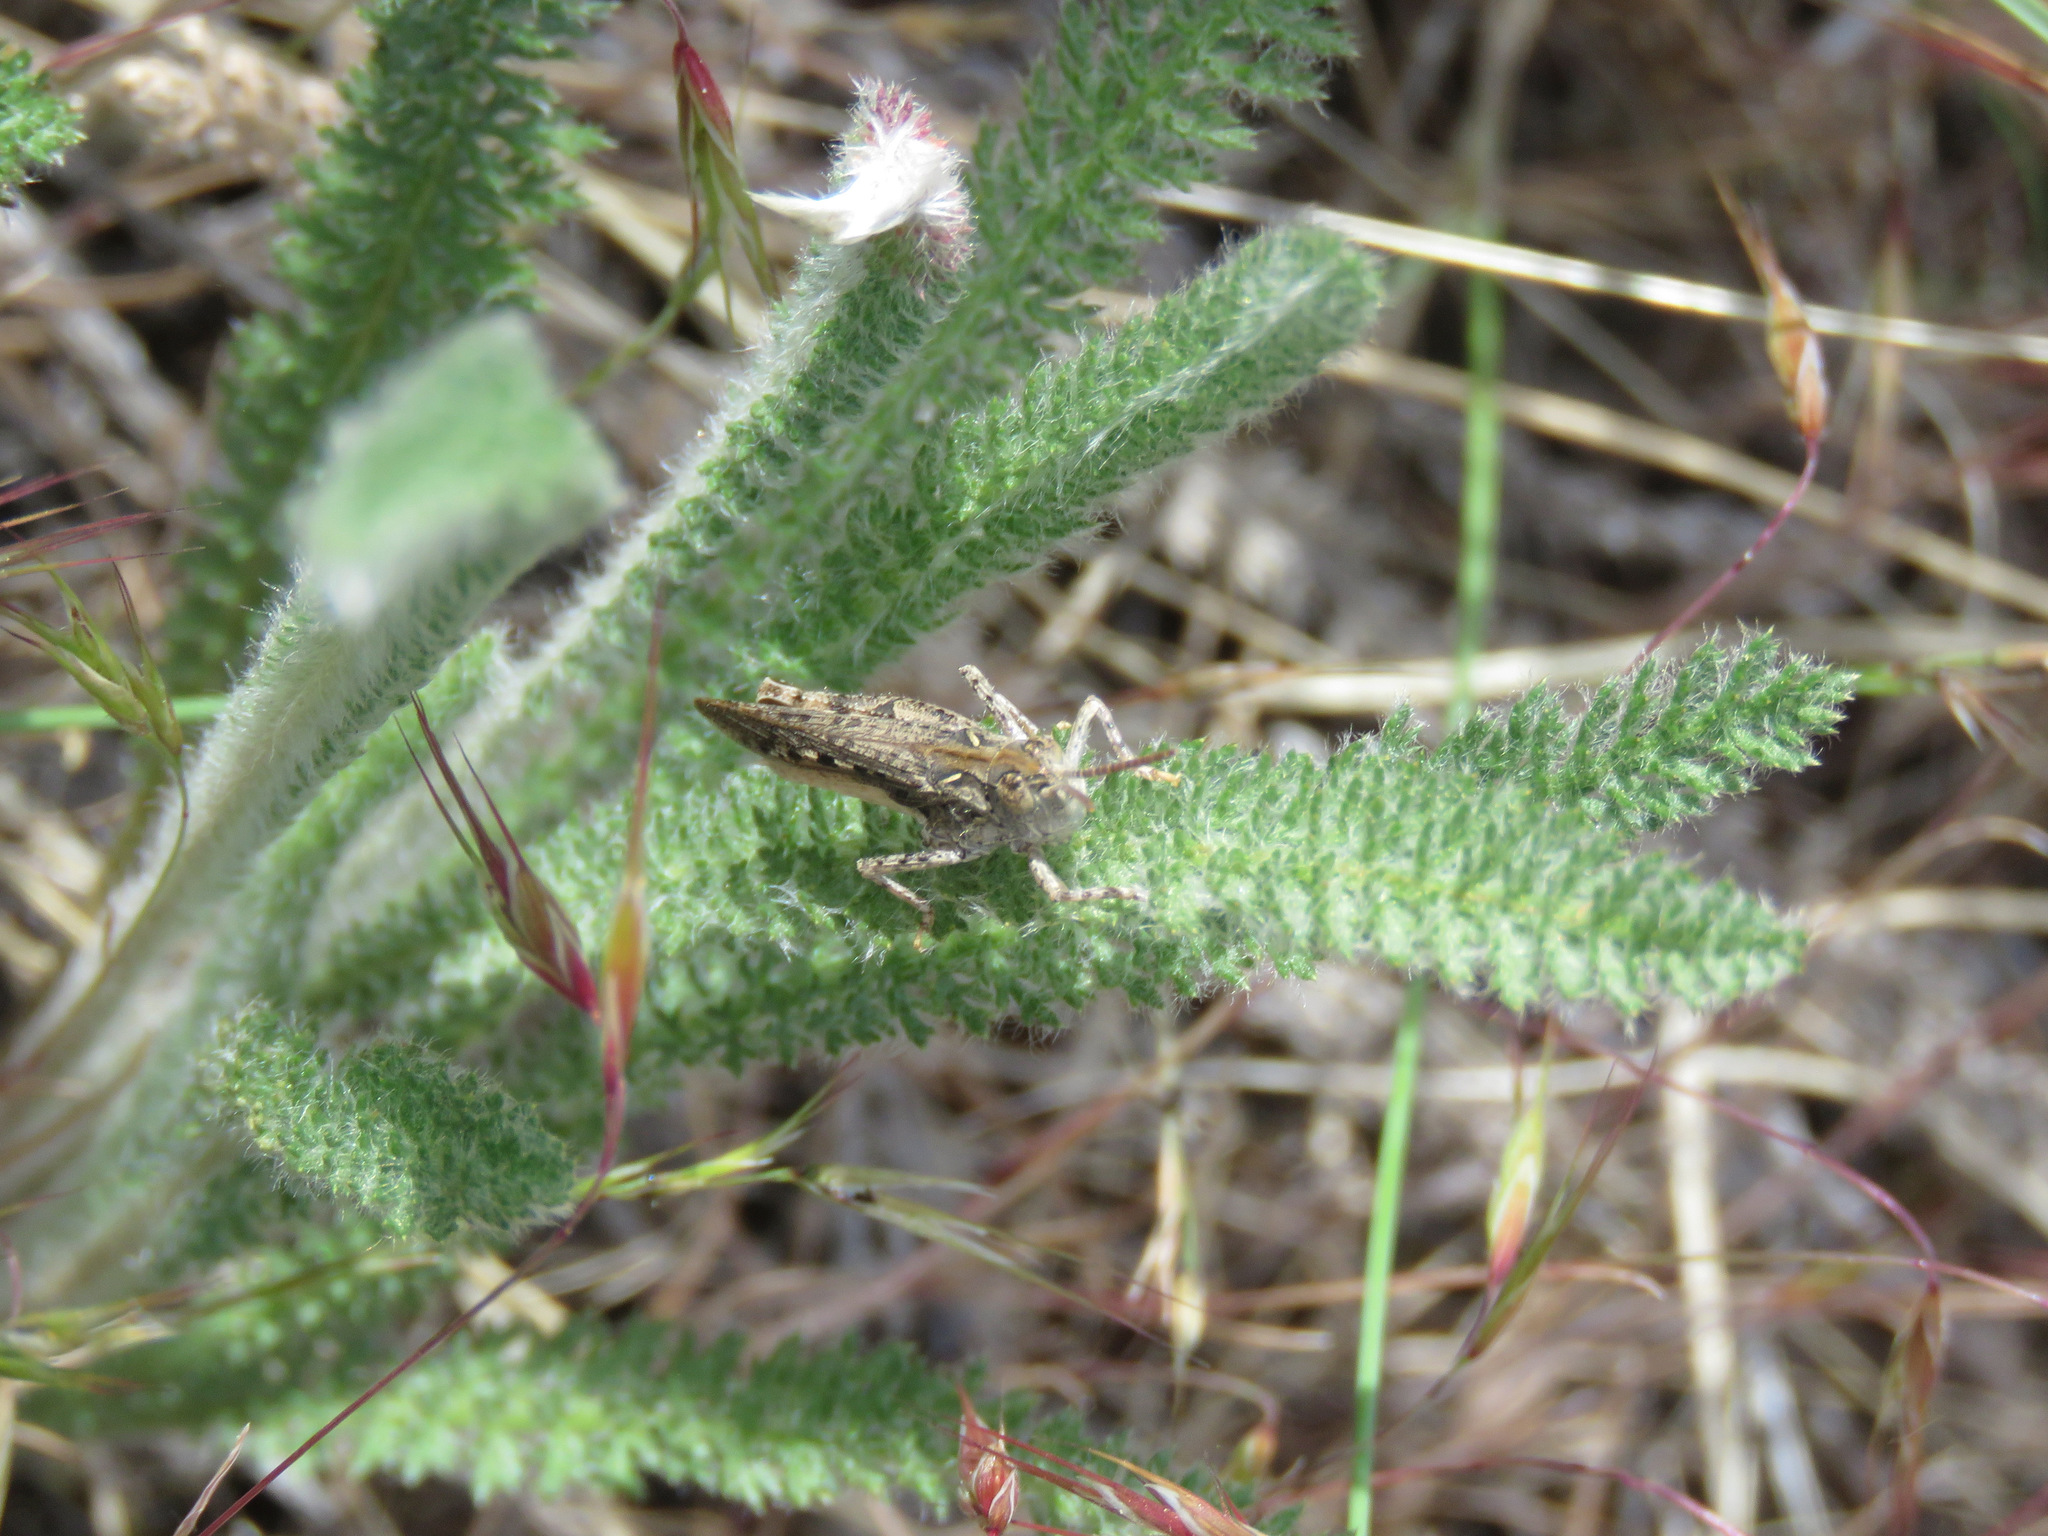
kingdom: Animalia
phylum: Arthropoda
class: Insecta
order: Orthoptera
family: Acrididae
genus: Psoloessa
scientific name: Psoloessa delicatula
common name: Brown-spotted range grasshopper
